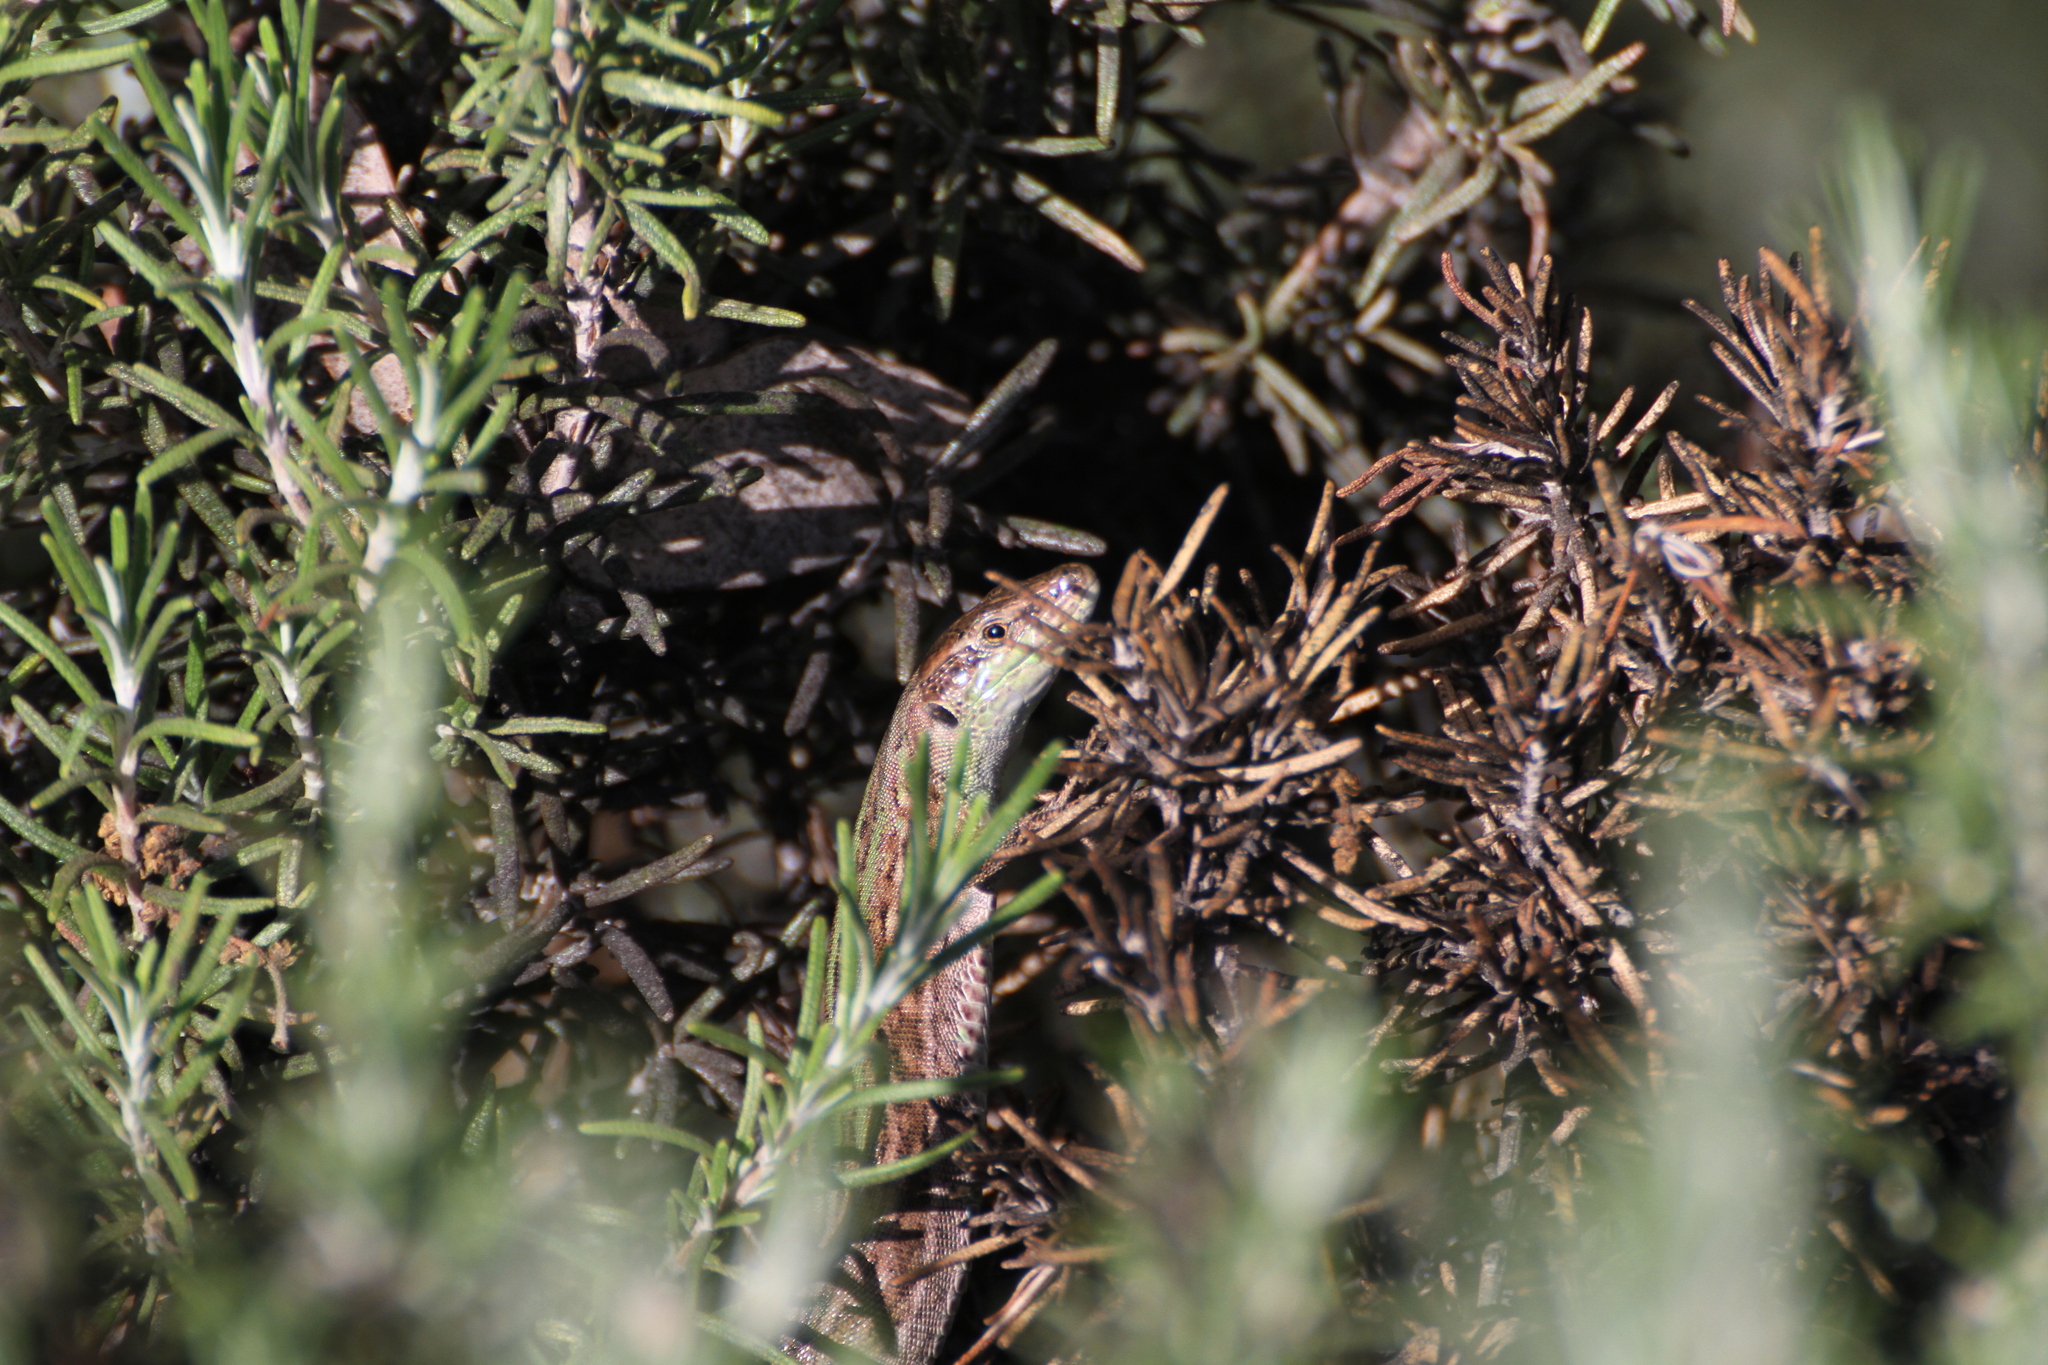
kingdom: Animalia
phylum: Chordata
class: Squamata
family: Lacertidae
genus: Podarcis
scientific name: Podarcis siculus
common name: Italian wall lizard
